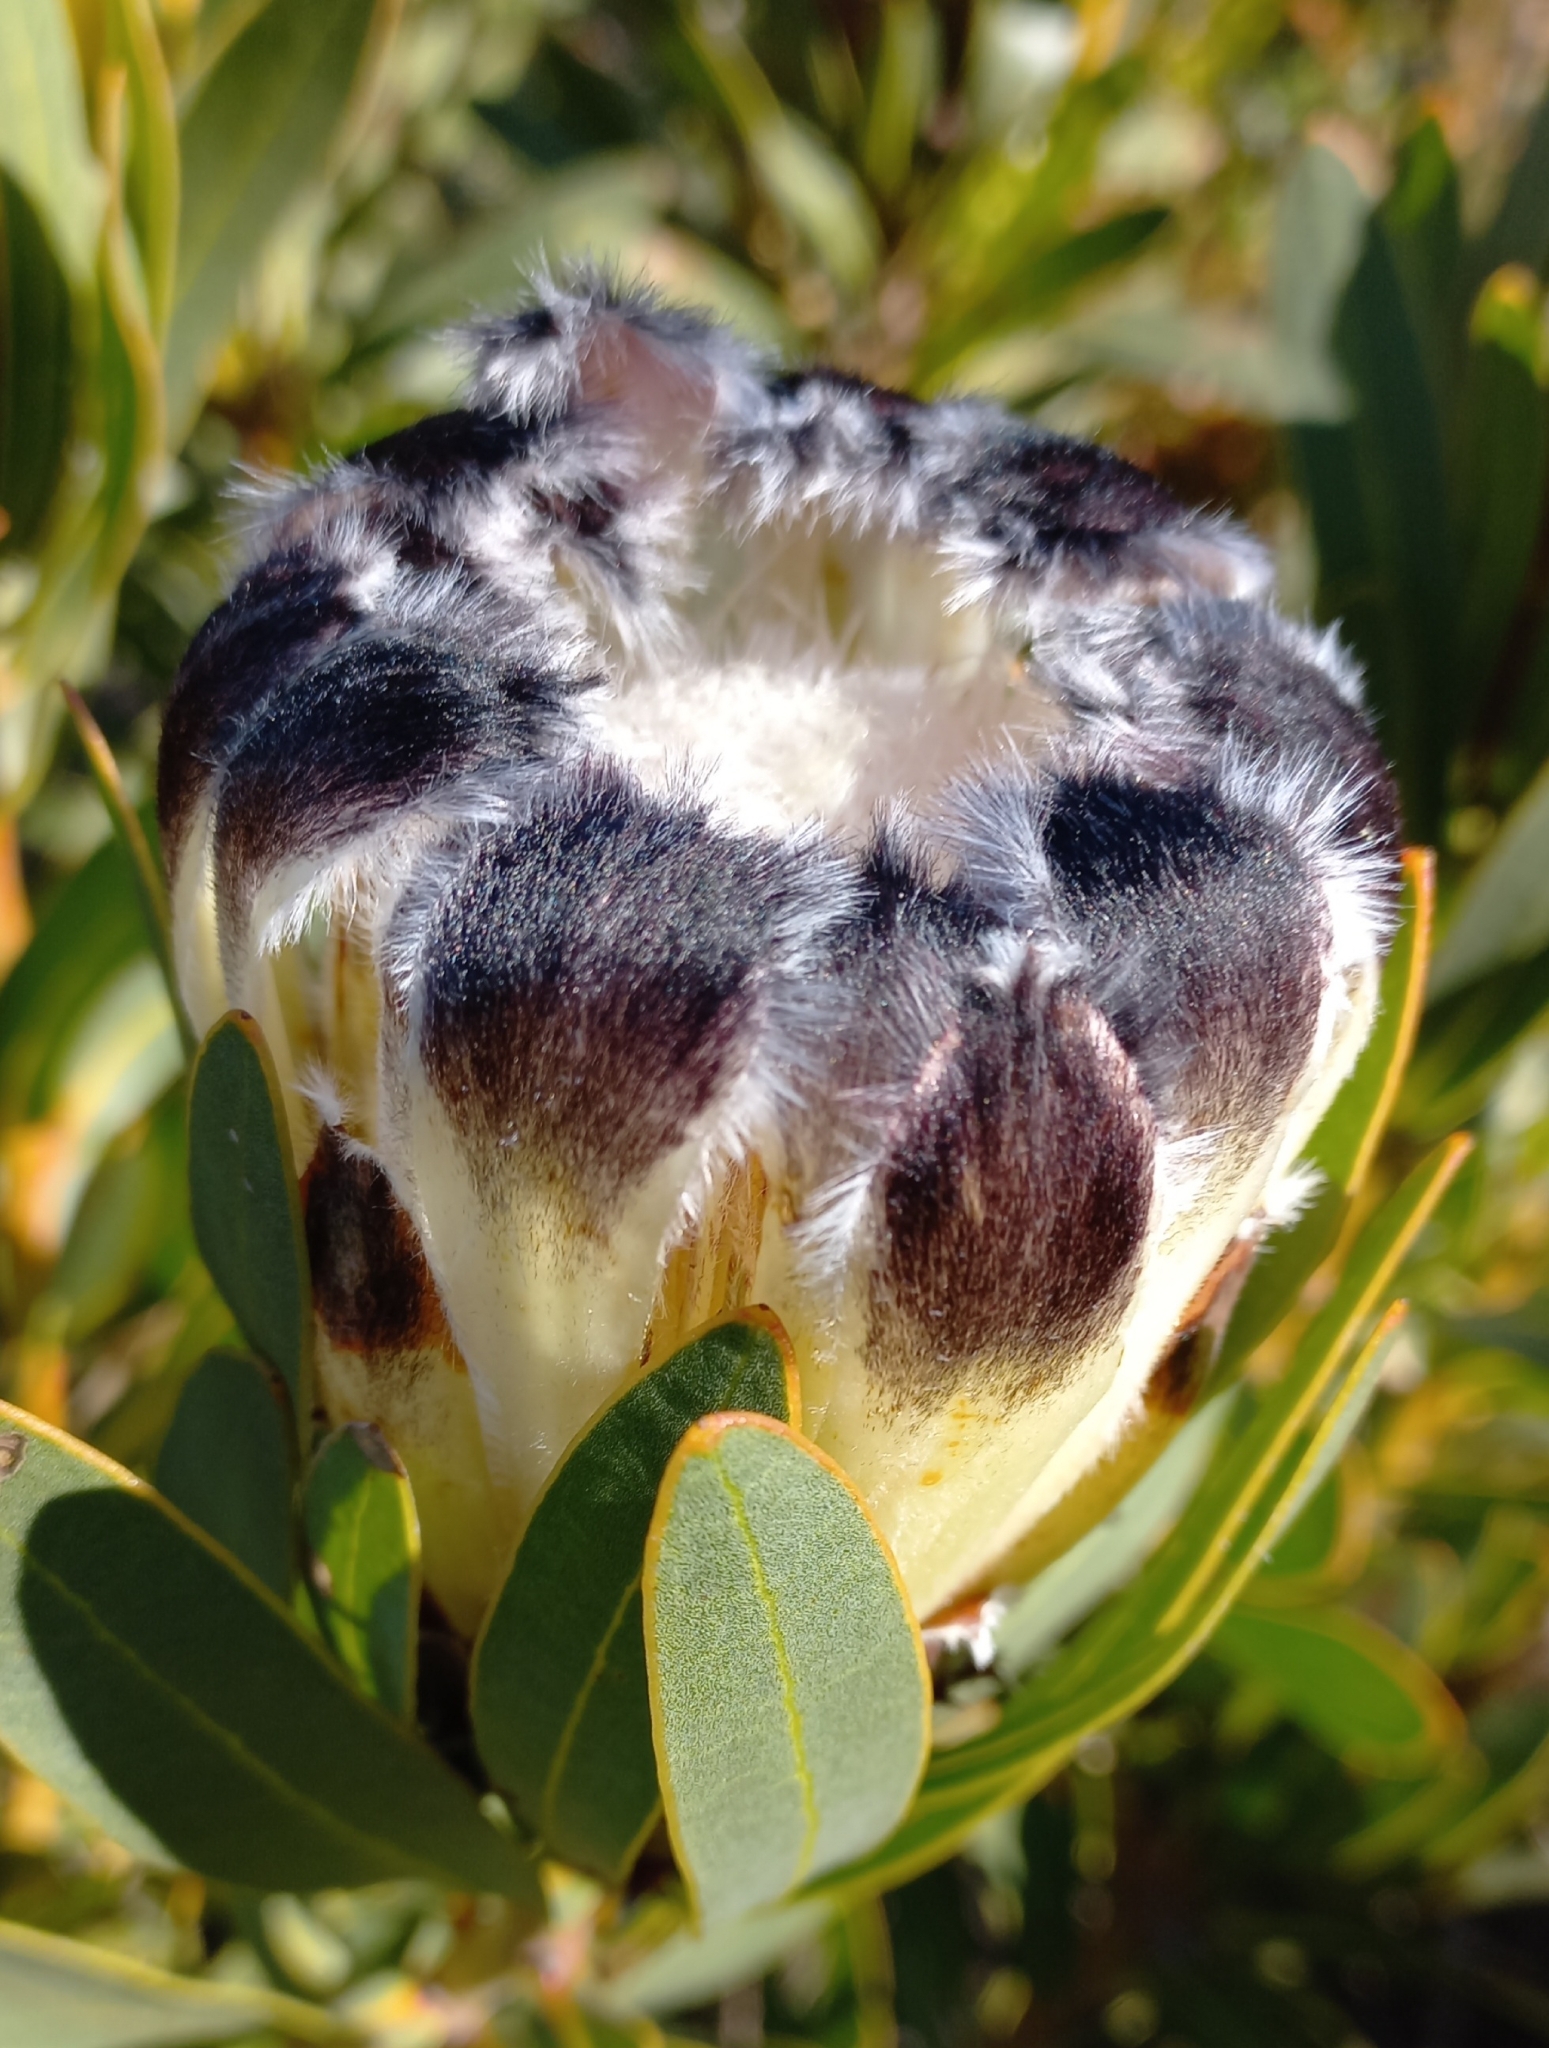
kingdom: Plantae
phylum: Tracheophyta
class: Magnoliopsida
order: Proteales
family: Proteaceae
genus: Protea
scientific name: Protea lepidocarpodendron
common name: Black-bearded protea
